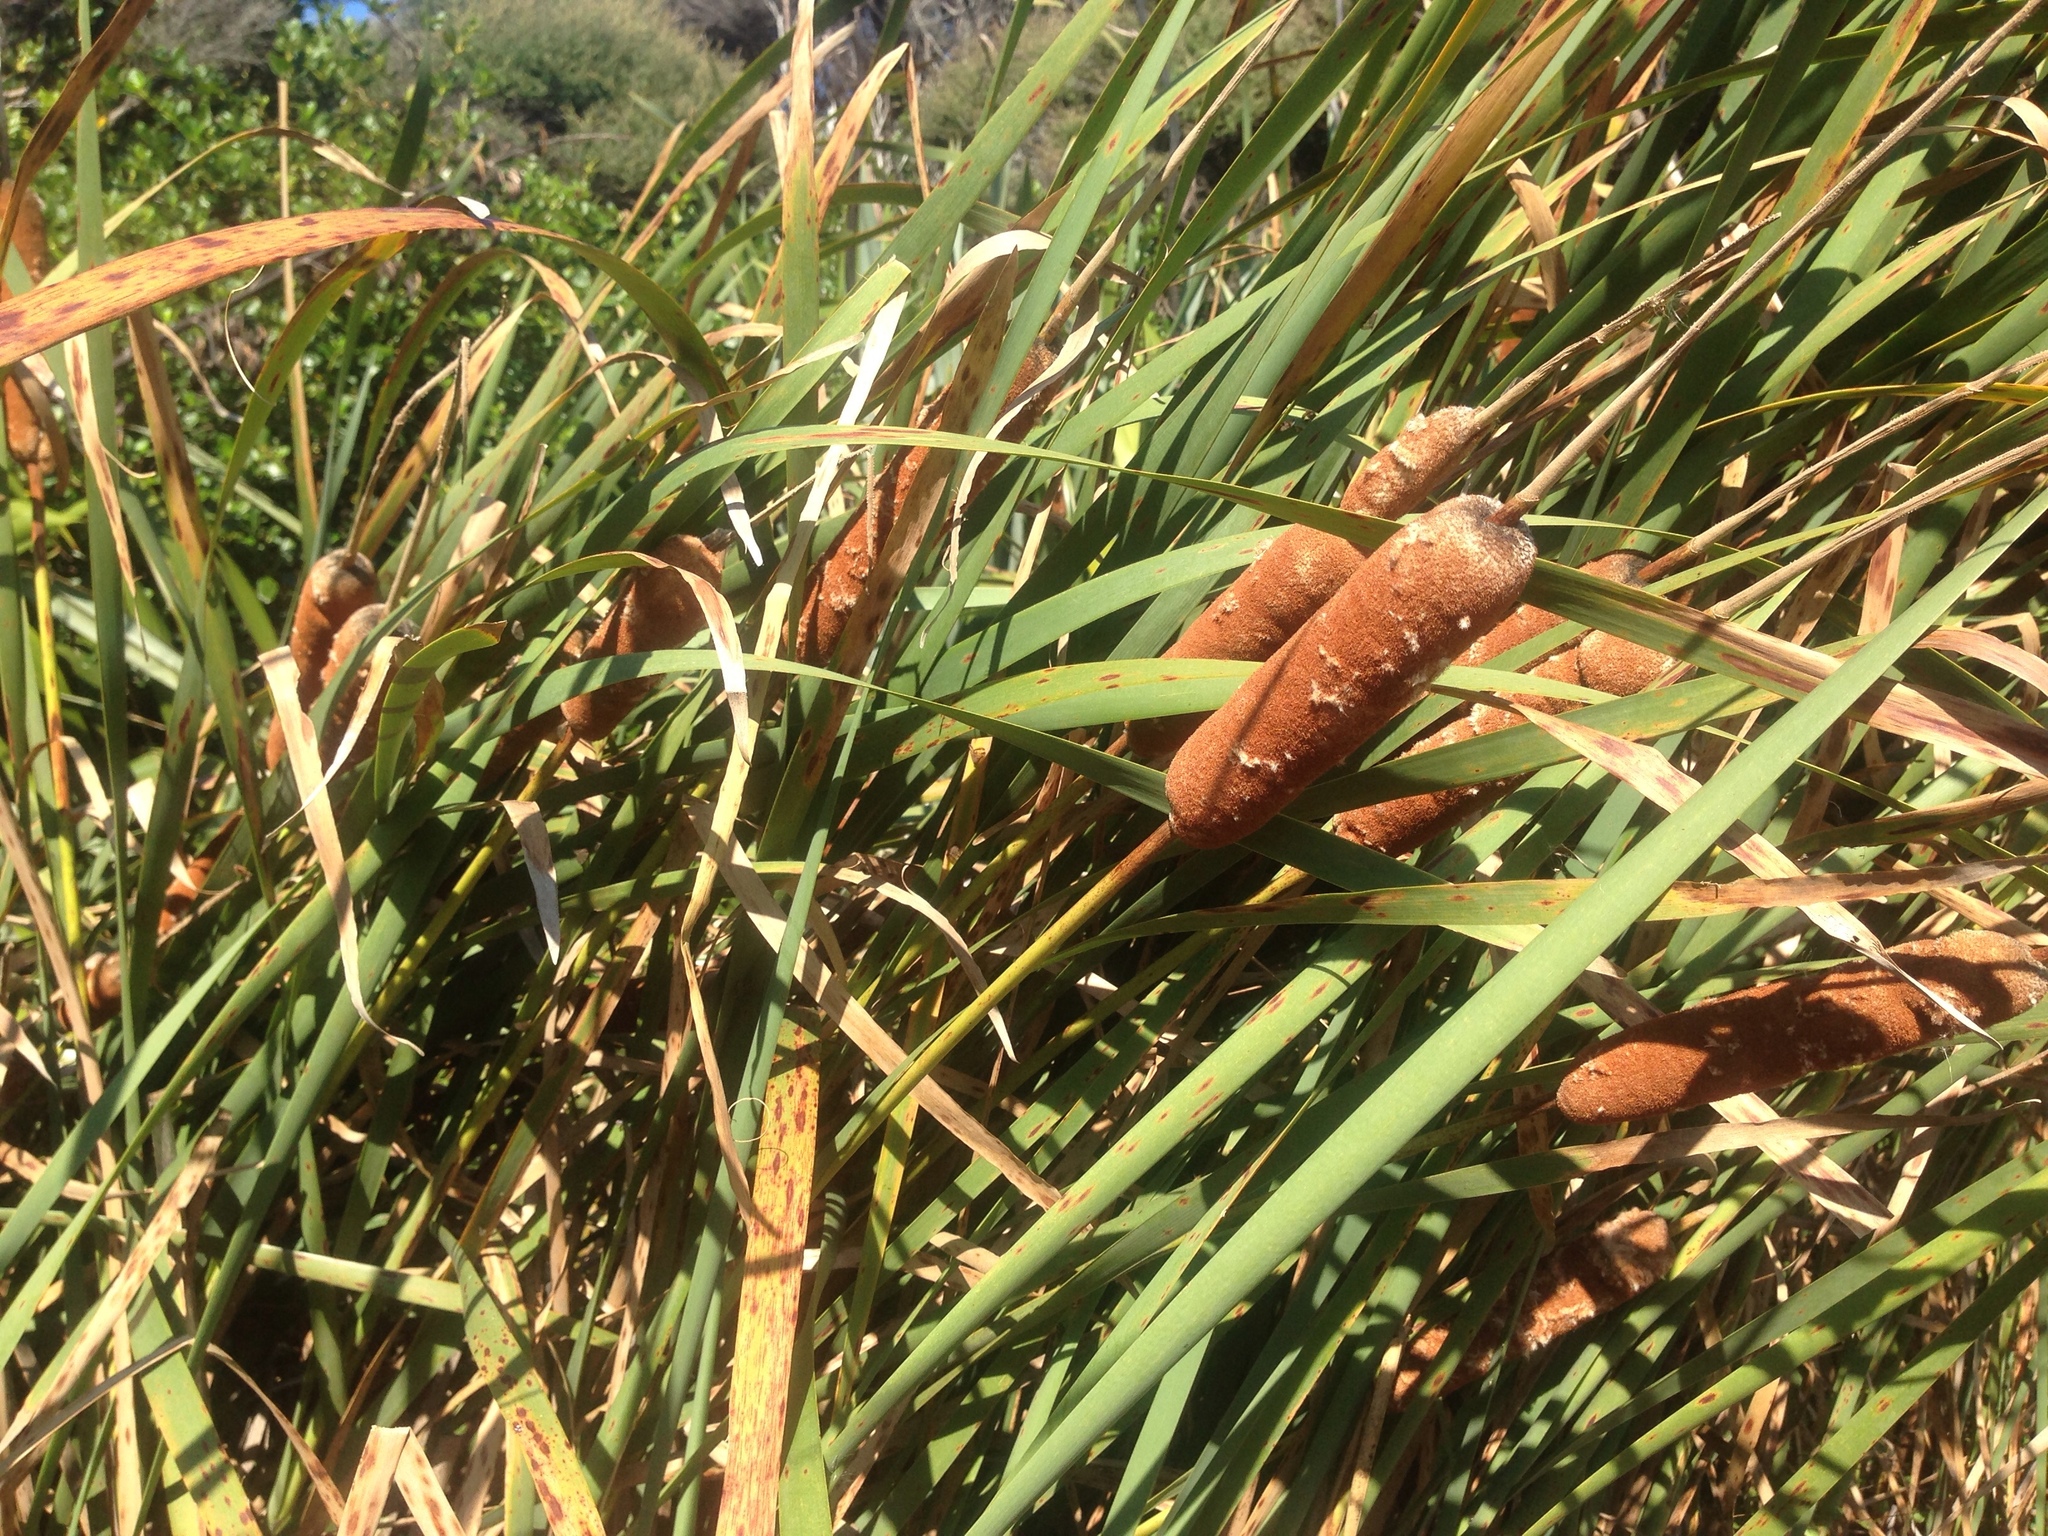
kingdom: Plantae
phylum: Tracheophyta
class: Liliopsida
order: Poales
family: Typhaceae
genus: Typha
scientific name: Typha orientalis
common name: Bullrush
